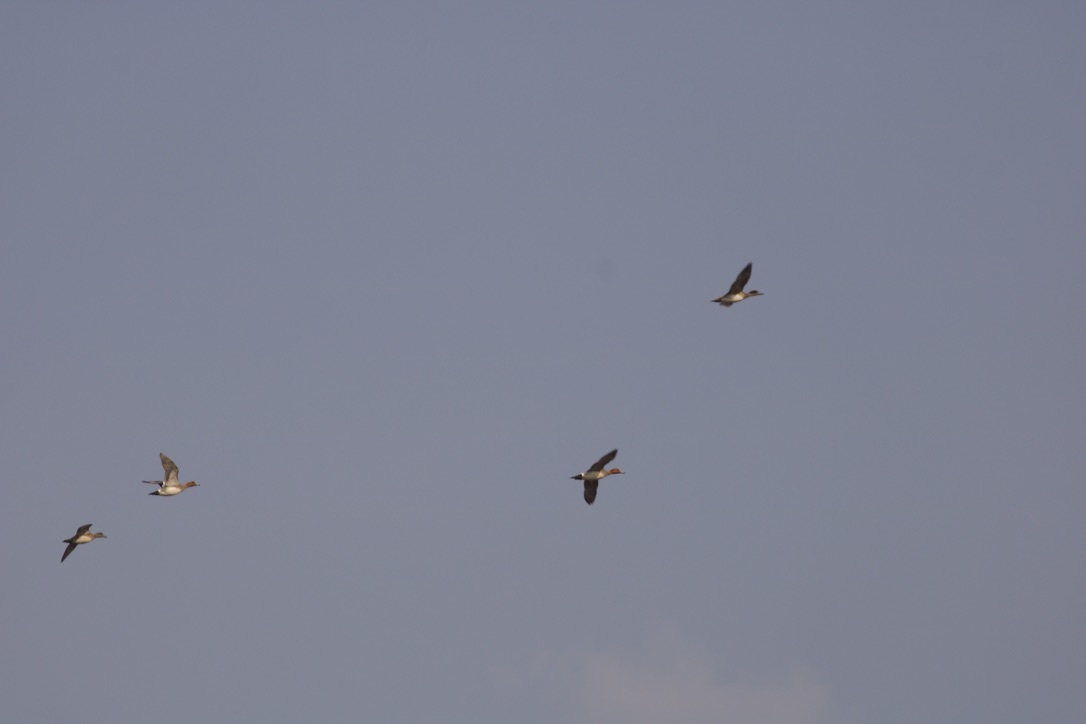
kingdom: Animalia
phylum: Chordata
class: Aves
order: Anseriformes
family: Anatidae
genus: Mareca
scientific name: Mareca penelope
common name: Eurasian wigeon
